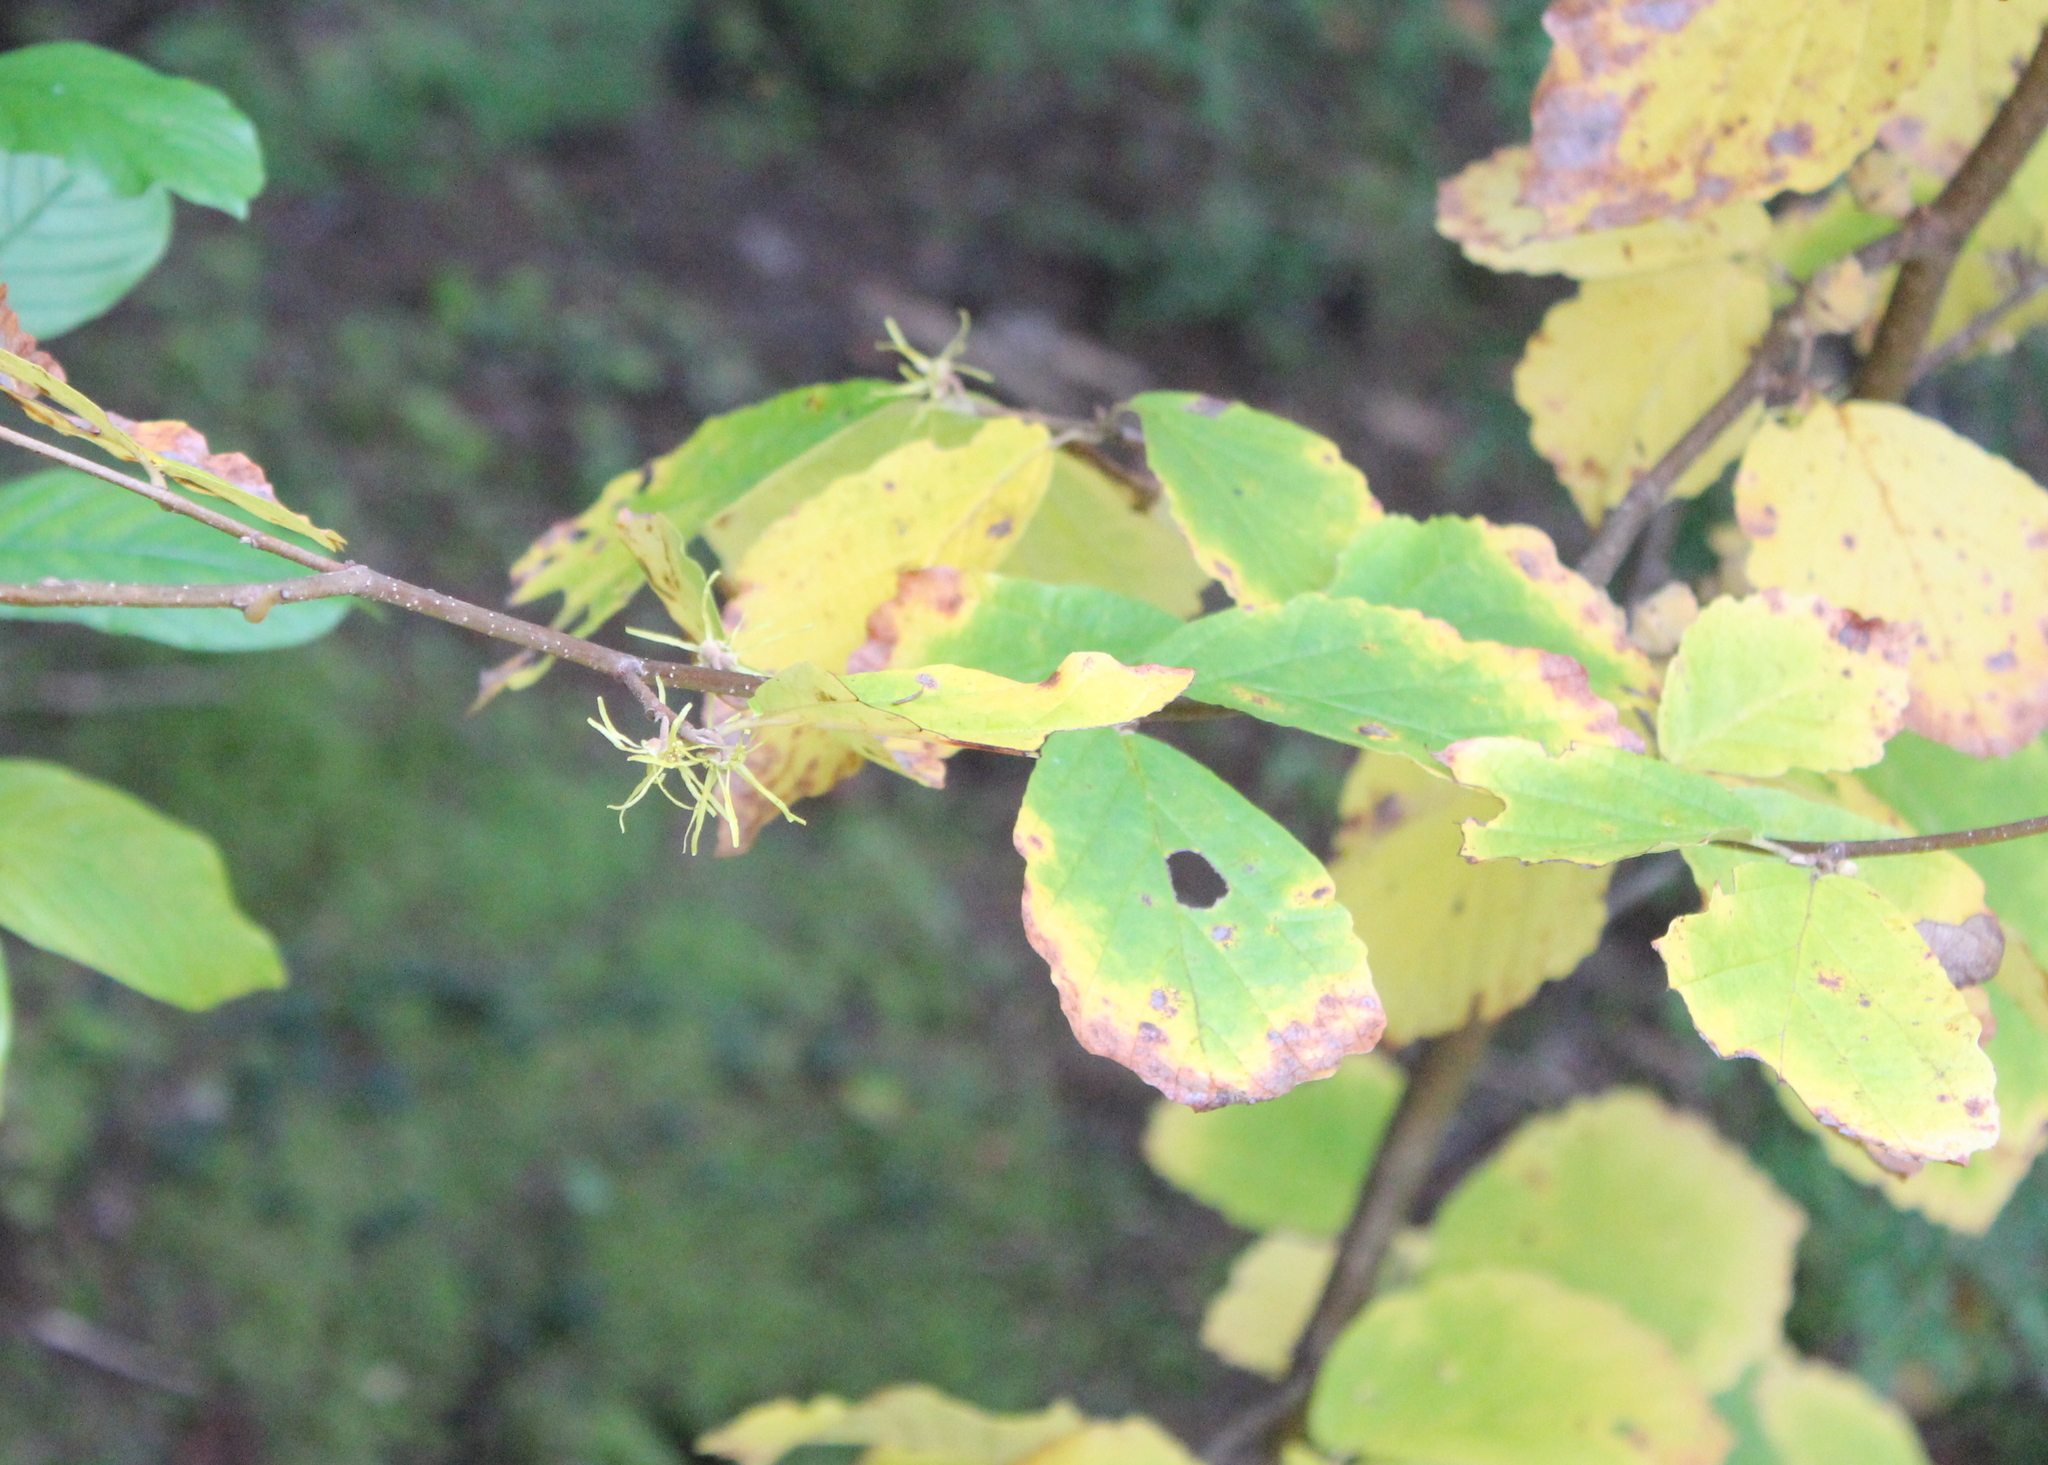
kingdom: Plantae
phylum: Tracheophyta
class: Magnoliopsida
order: Saxifragales
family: Hamamelidaceae
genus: Hamamelis
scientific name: Hamamelis virginiana
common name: Witch-hazel
